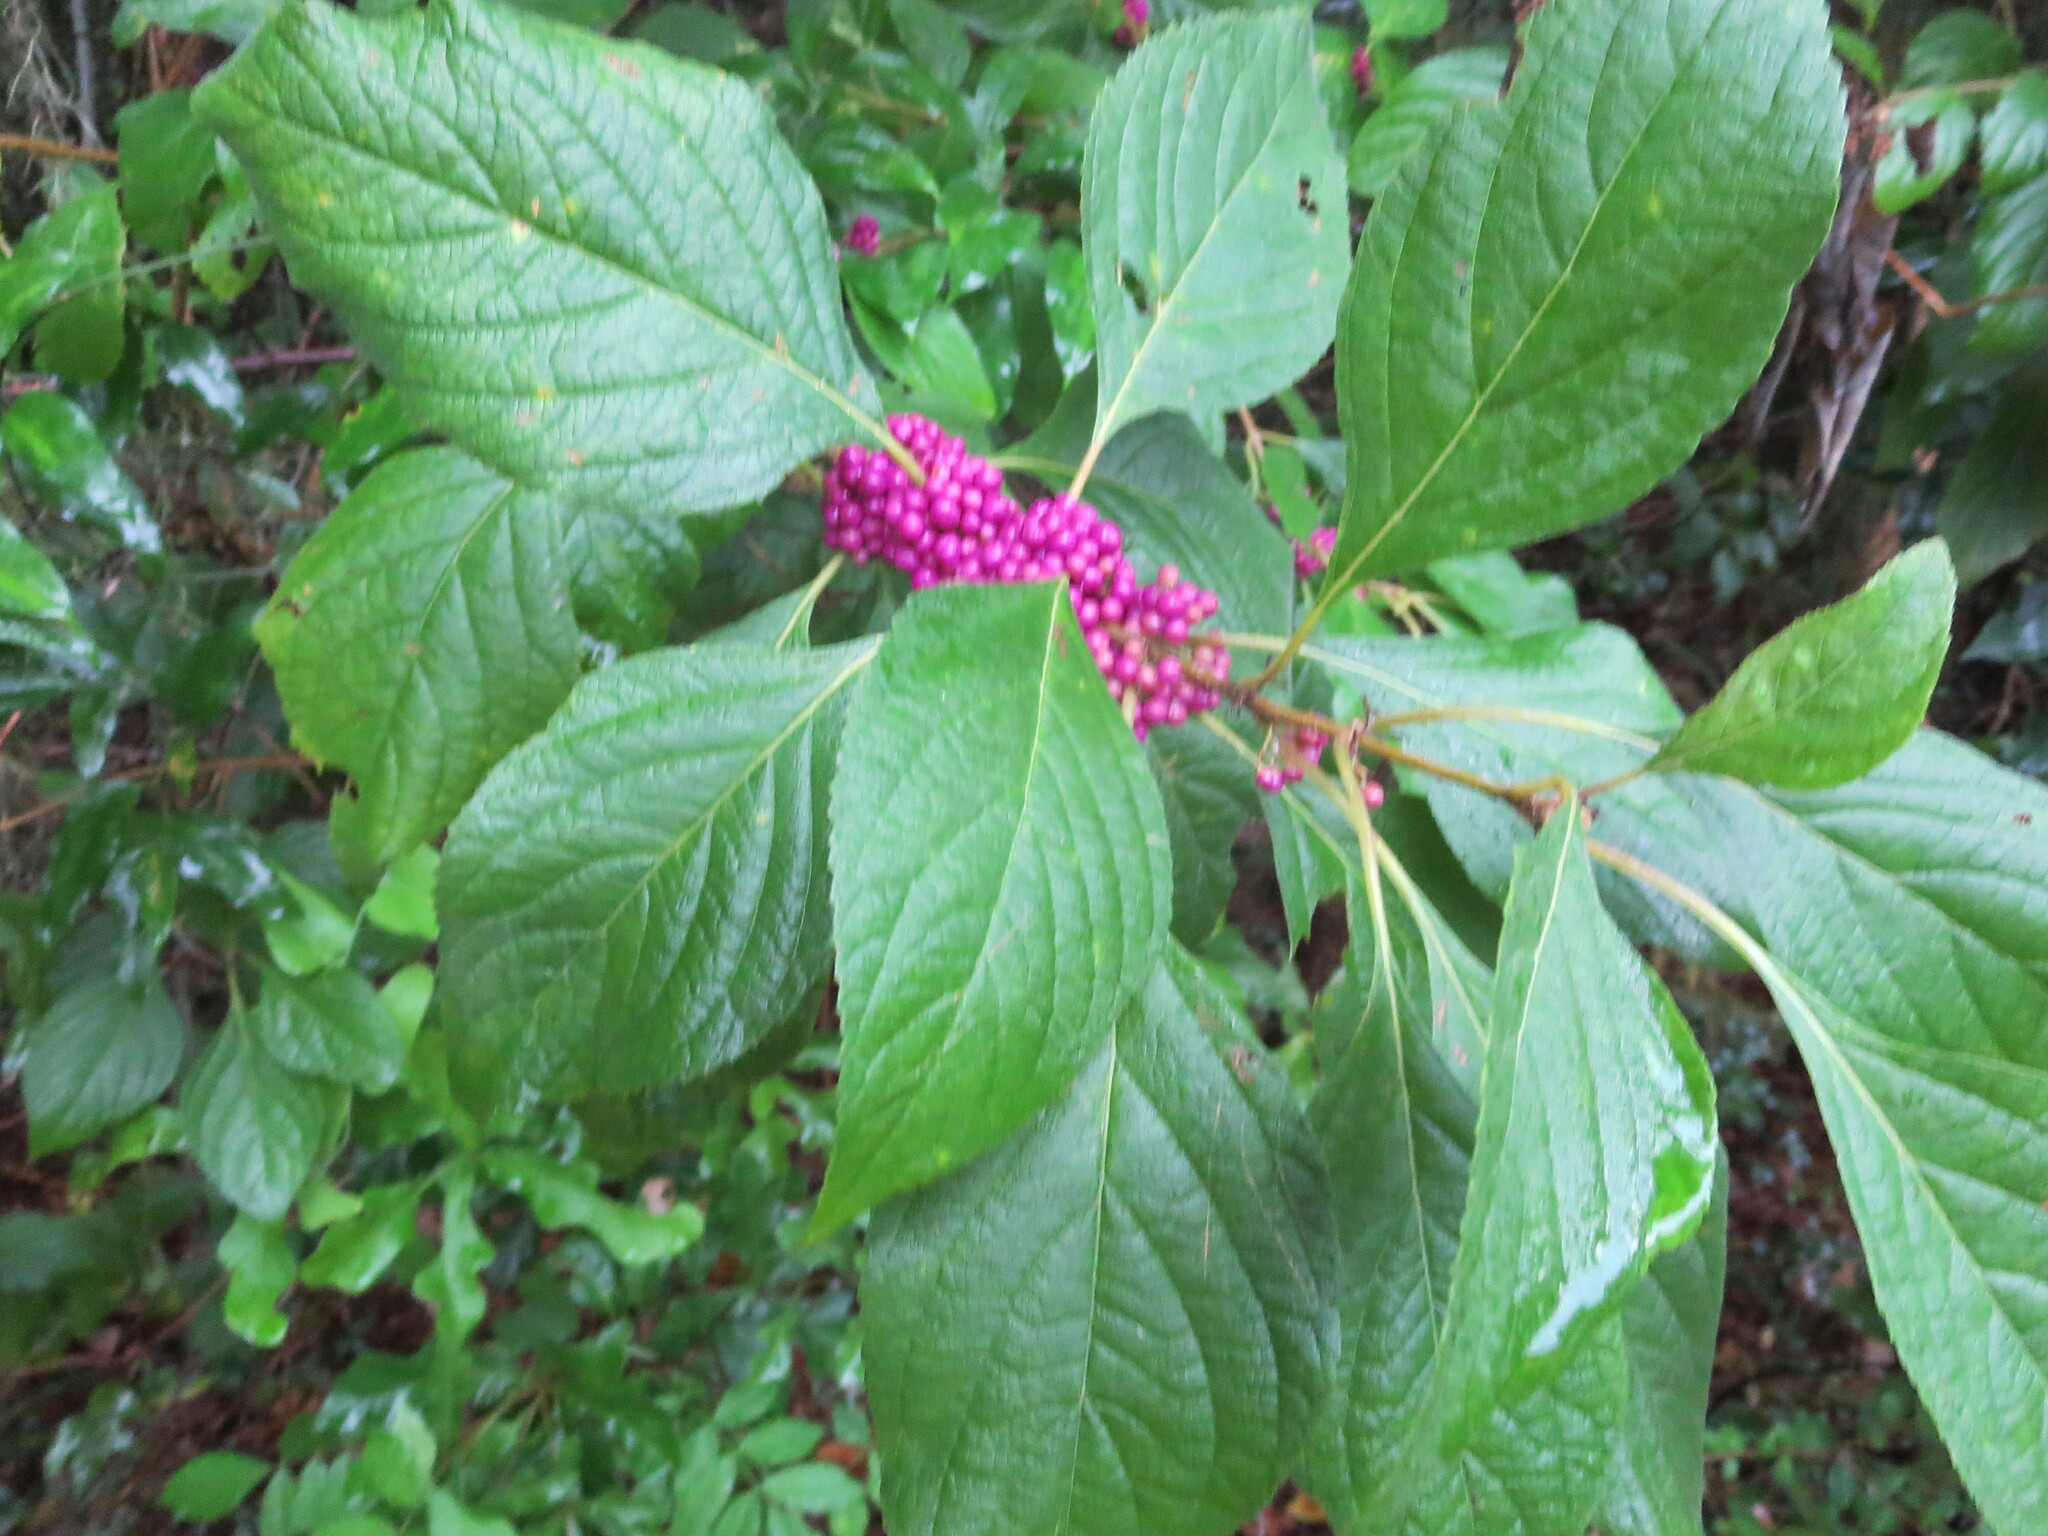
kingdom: Plantae
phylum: Tracheophyta
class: Magnoliopsida
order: Lamiales
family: Lamiaceae
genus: Callicarpa
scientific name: Callicarpa americana
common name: American beautyberry
